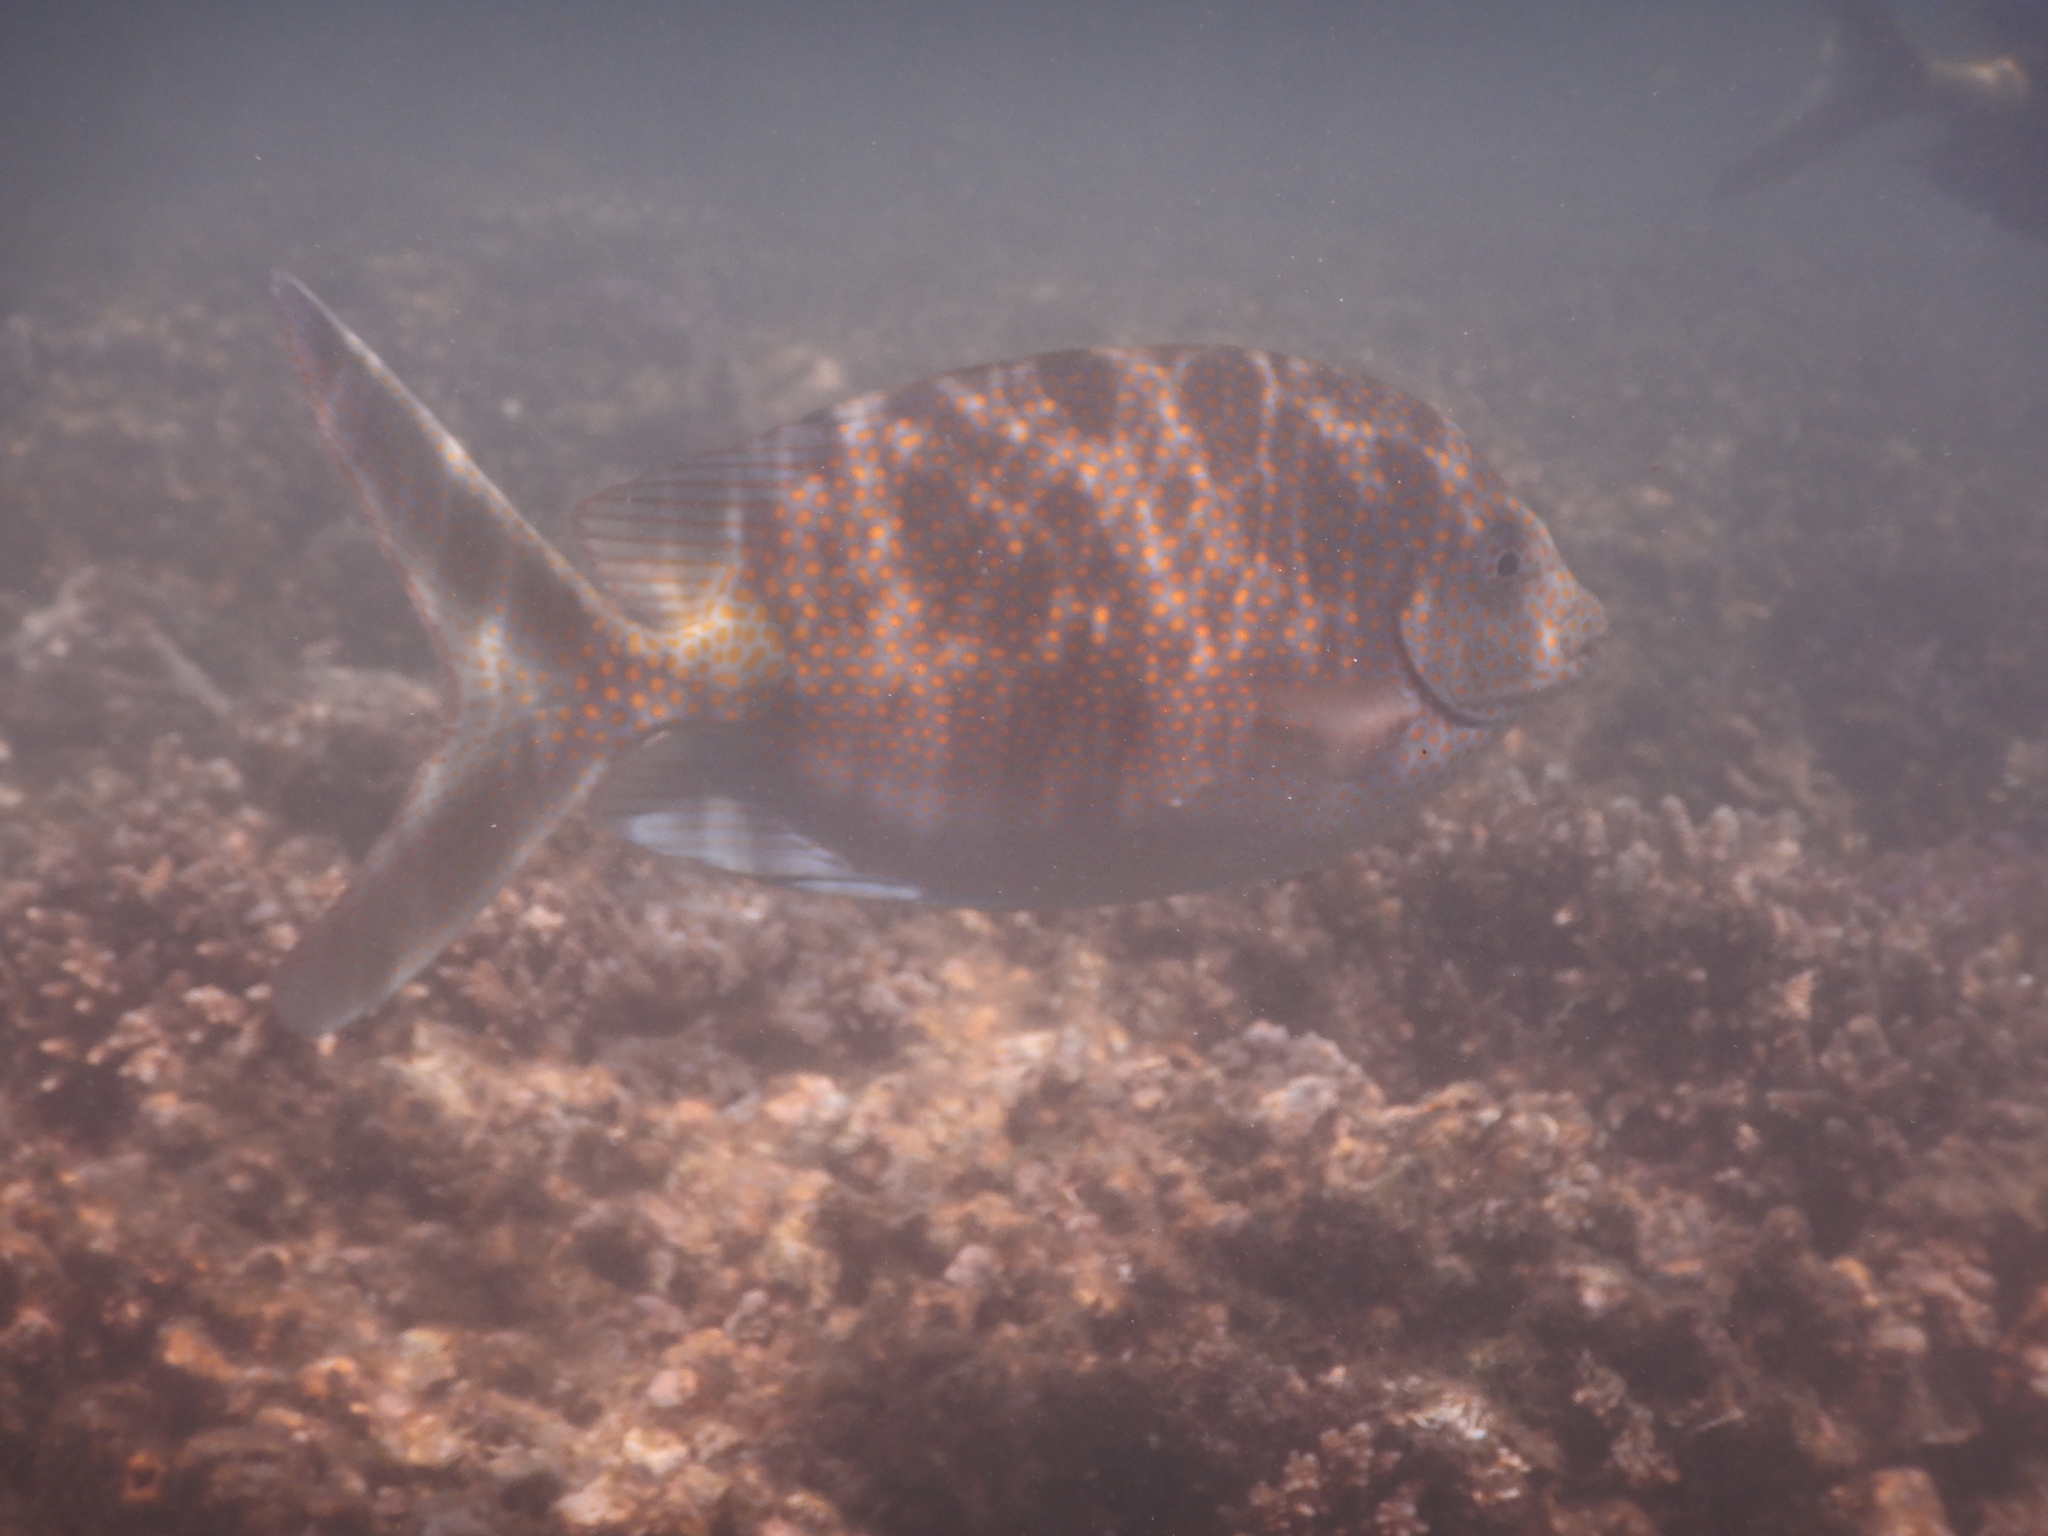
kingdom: Animalia
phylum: Chordata
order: Perciformes
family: Siganidae
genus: Siganus
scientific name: Siganus punctatus
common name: Gold-spotted rabbitfish
